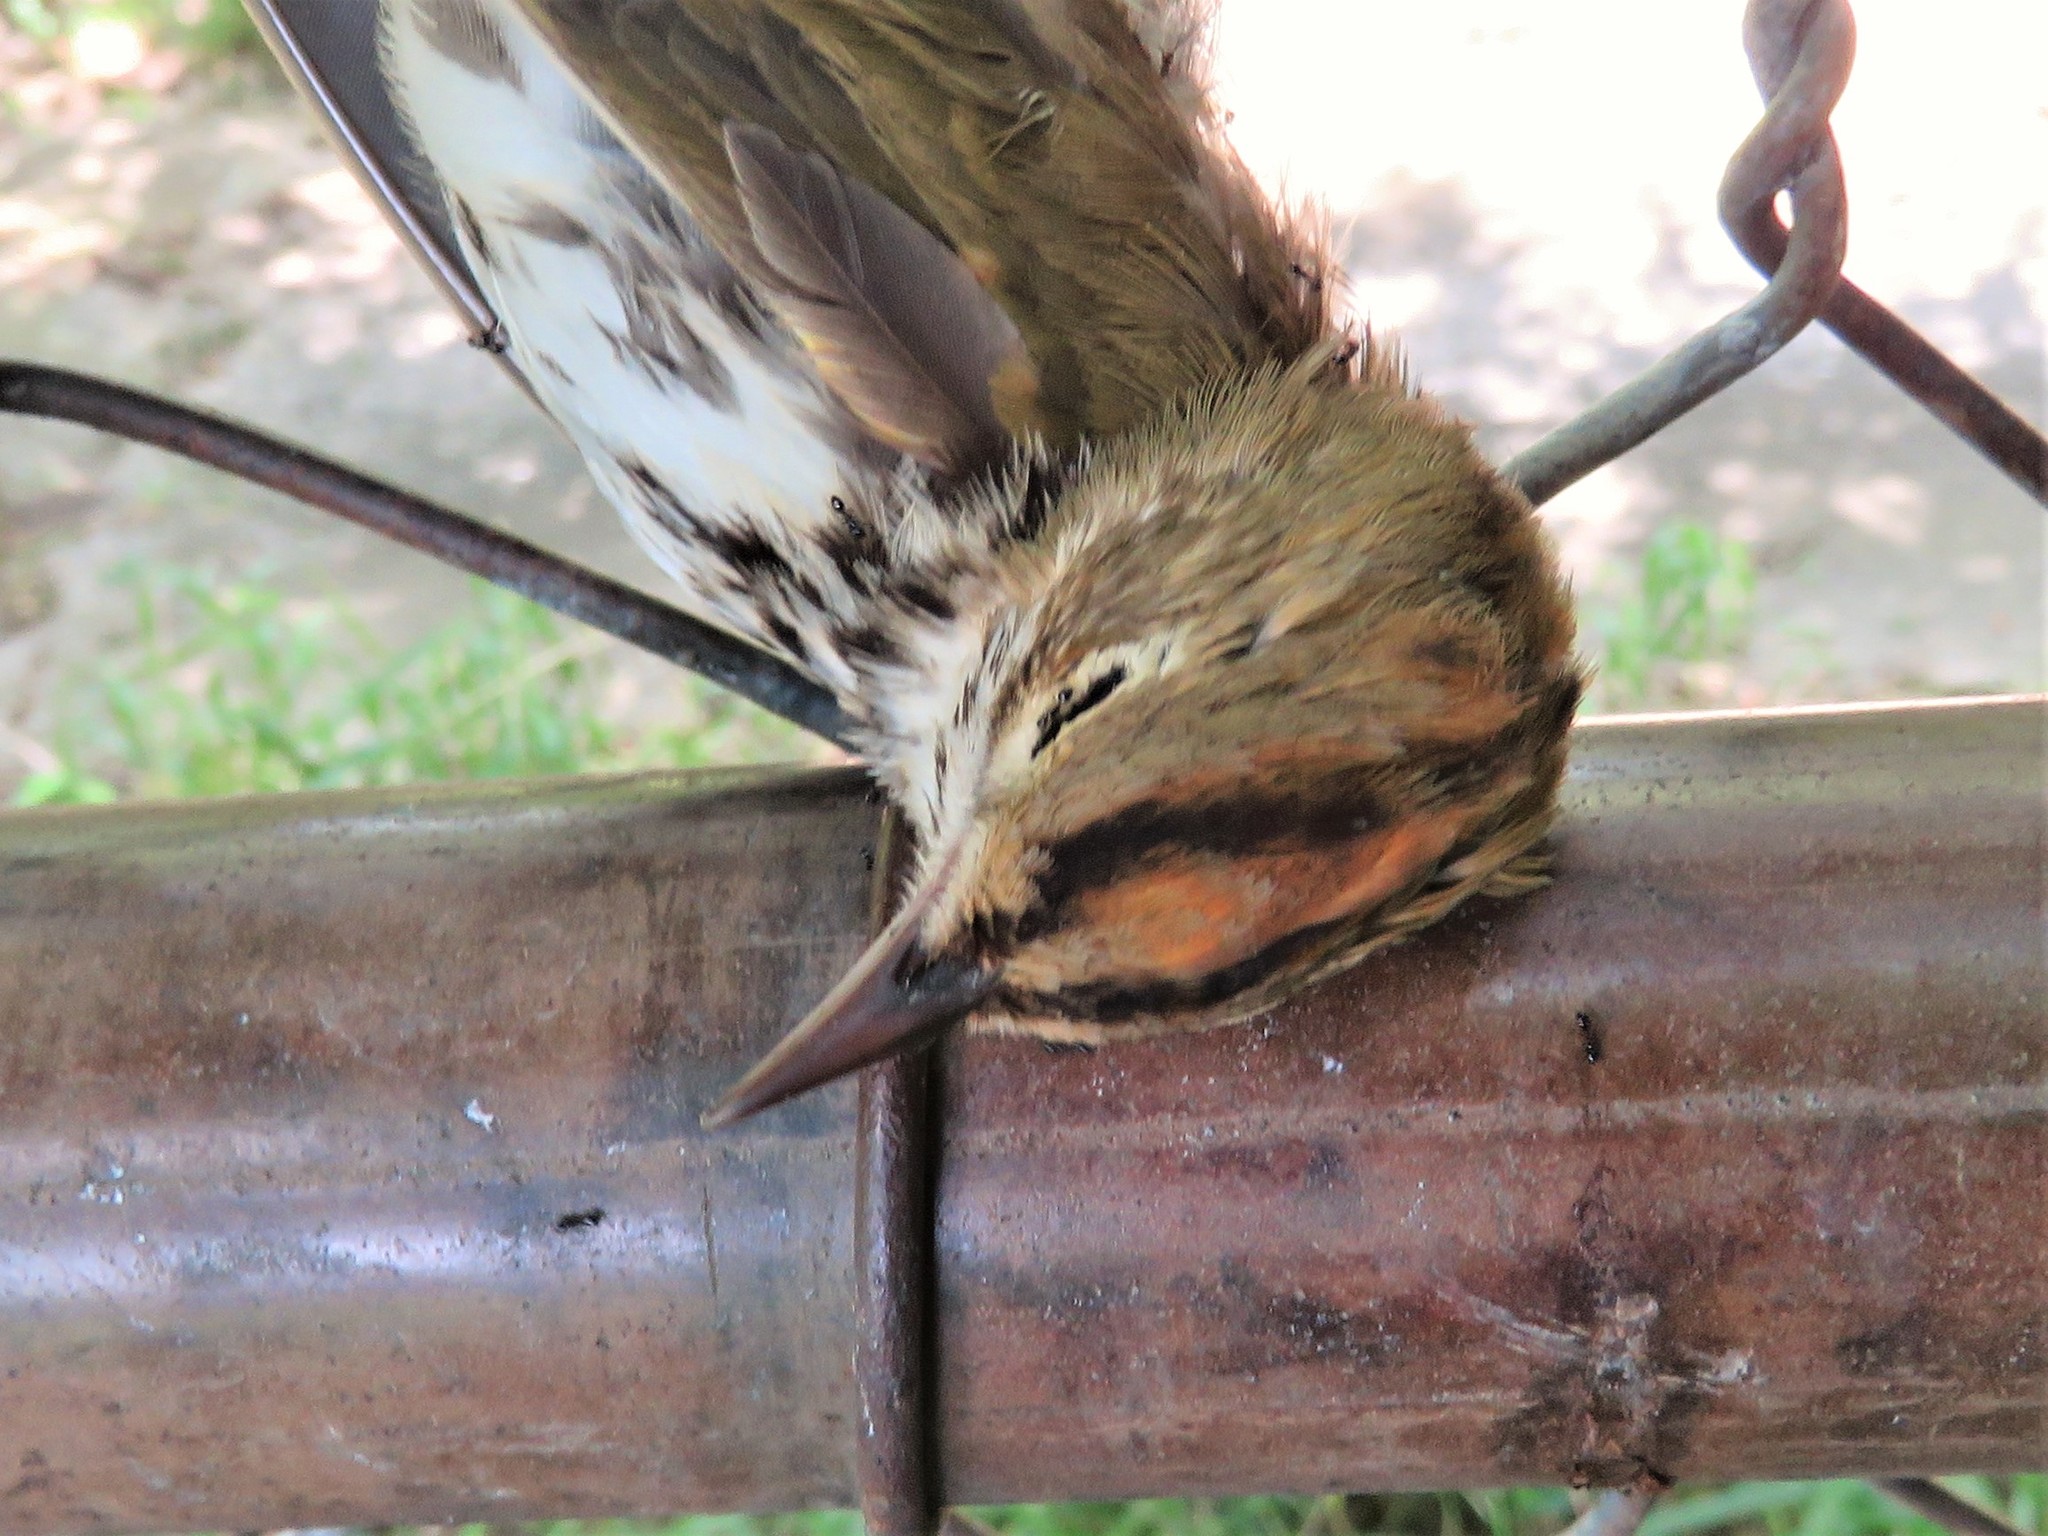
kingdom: Animalia
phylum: Chordata
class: Aves
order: Passeriformes
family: Parulidae
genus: Seiurus
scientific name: Seiurus aurocapilla
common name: Ovenbird
